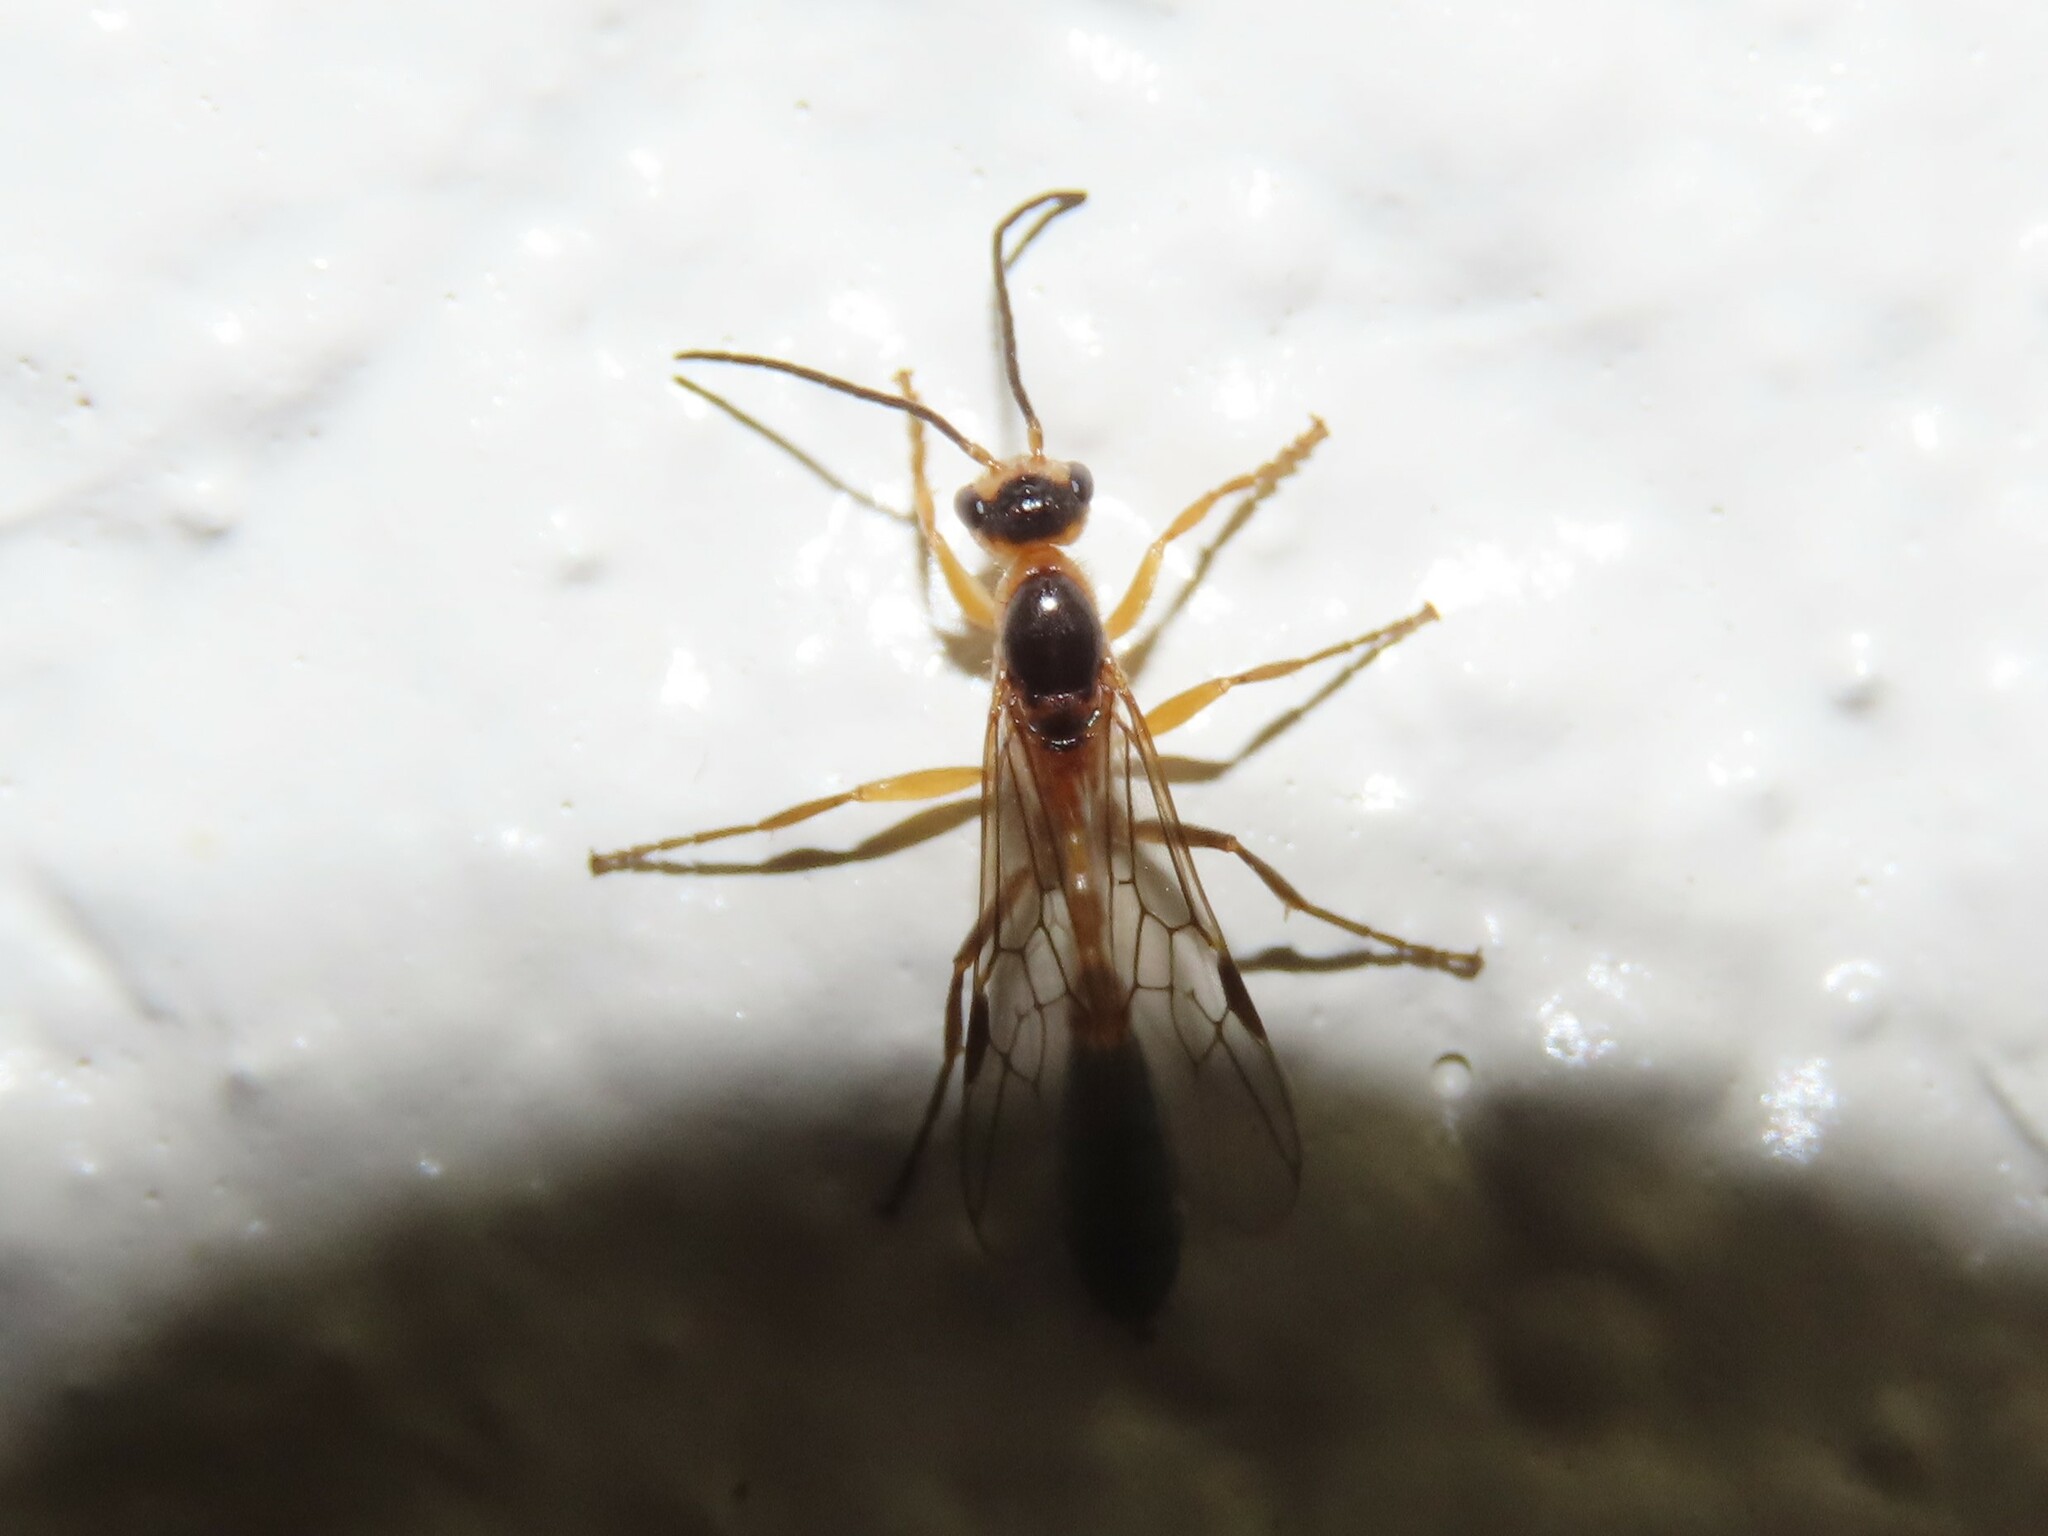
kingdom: Animalia
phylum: Arthropoda
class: Insecta
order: Hymenoptera
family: Formicidae
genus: Pseudomyrmex
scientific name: Pseudomyrmex gracilis
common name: Graceful twig ant
